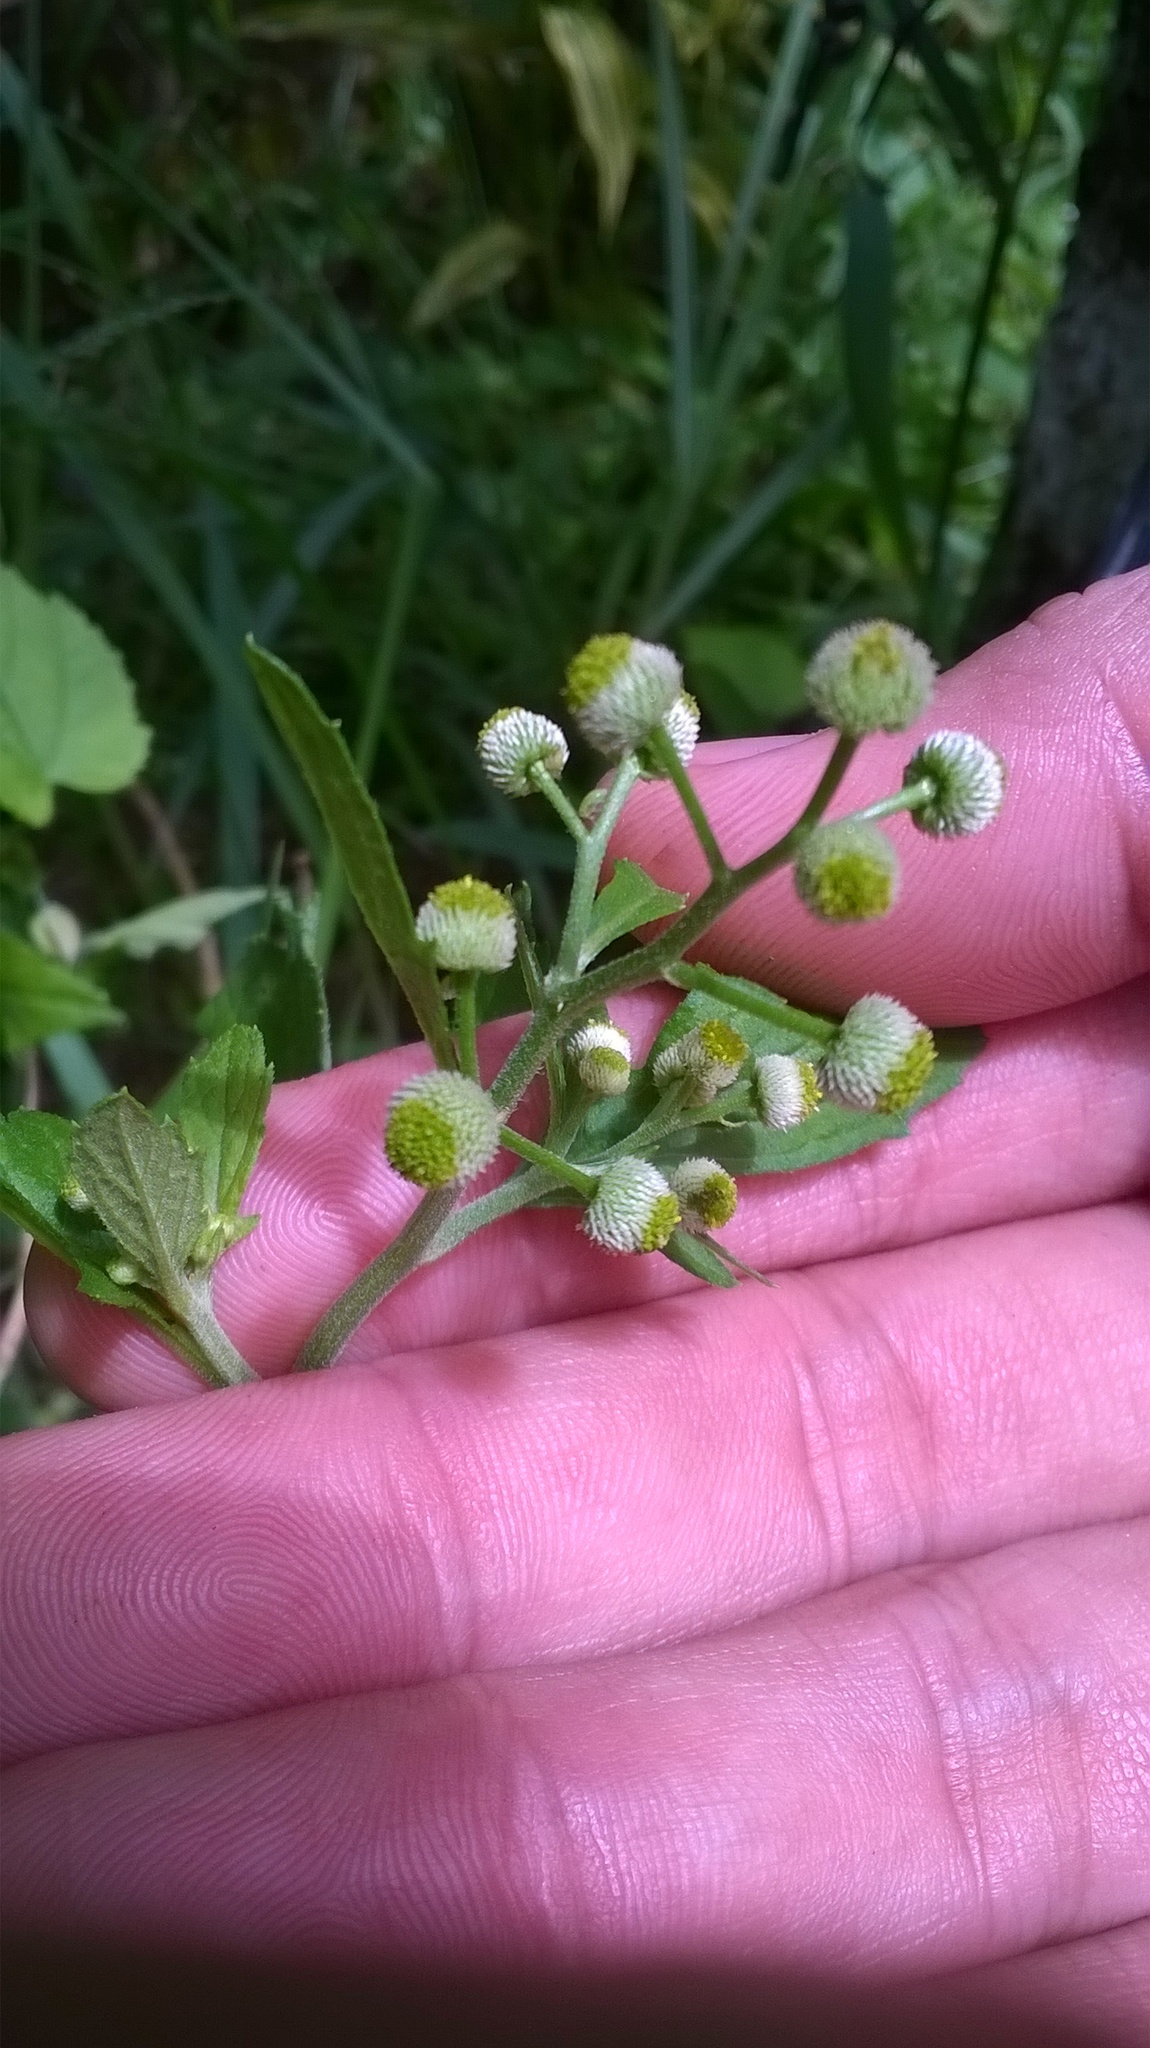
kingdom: Plantae
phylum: Tracheophyta
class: Magnoliopsida
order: Asterales
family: Asteraceae
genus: Dichrocephala
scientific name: Dichrocephala integrifolia
